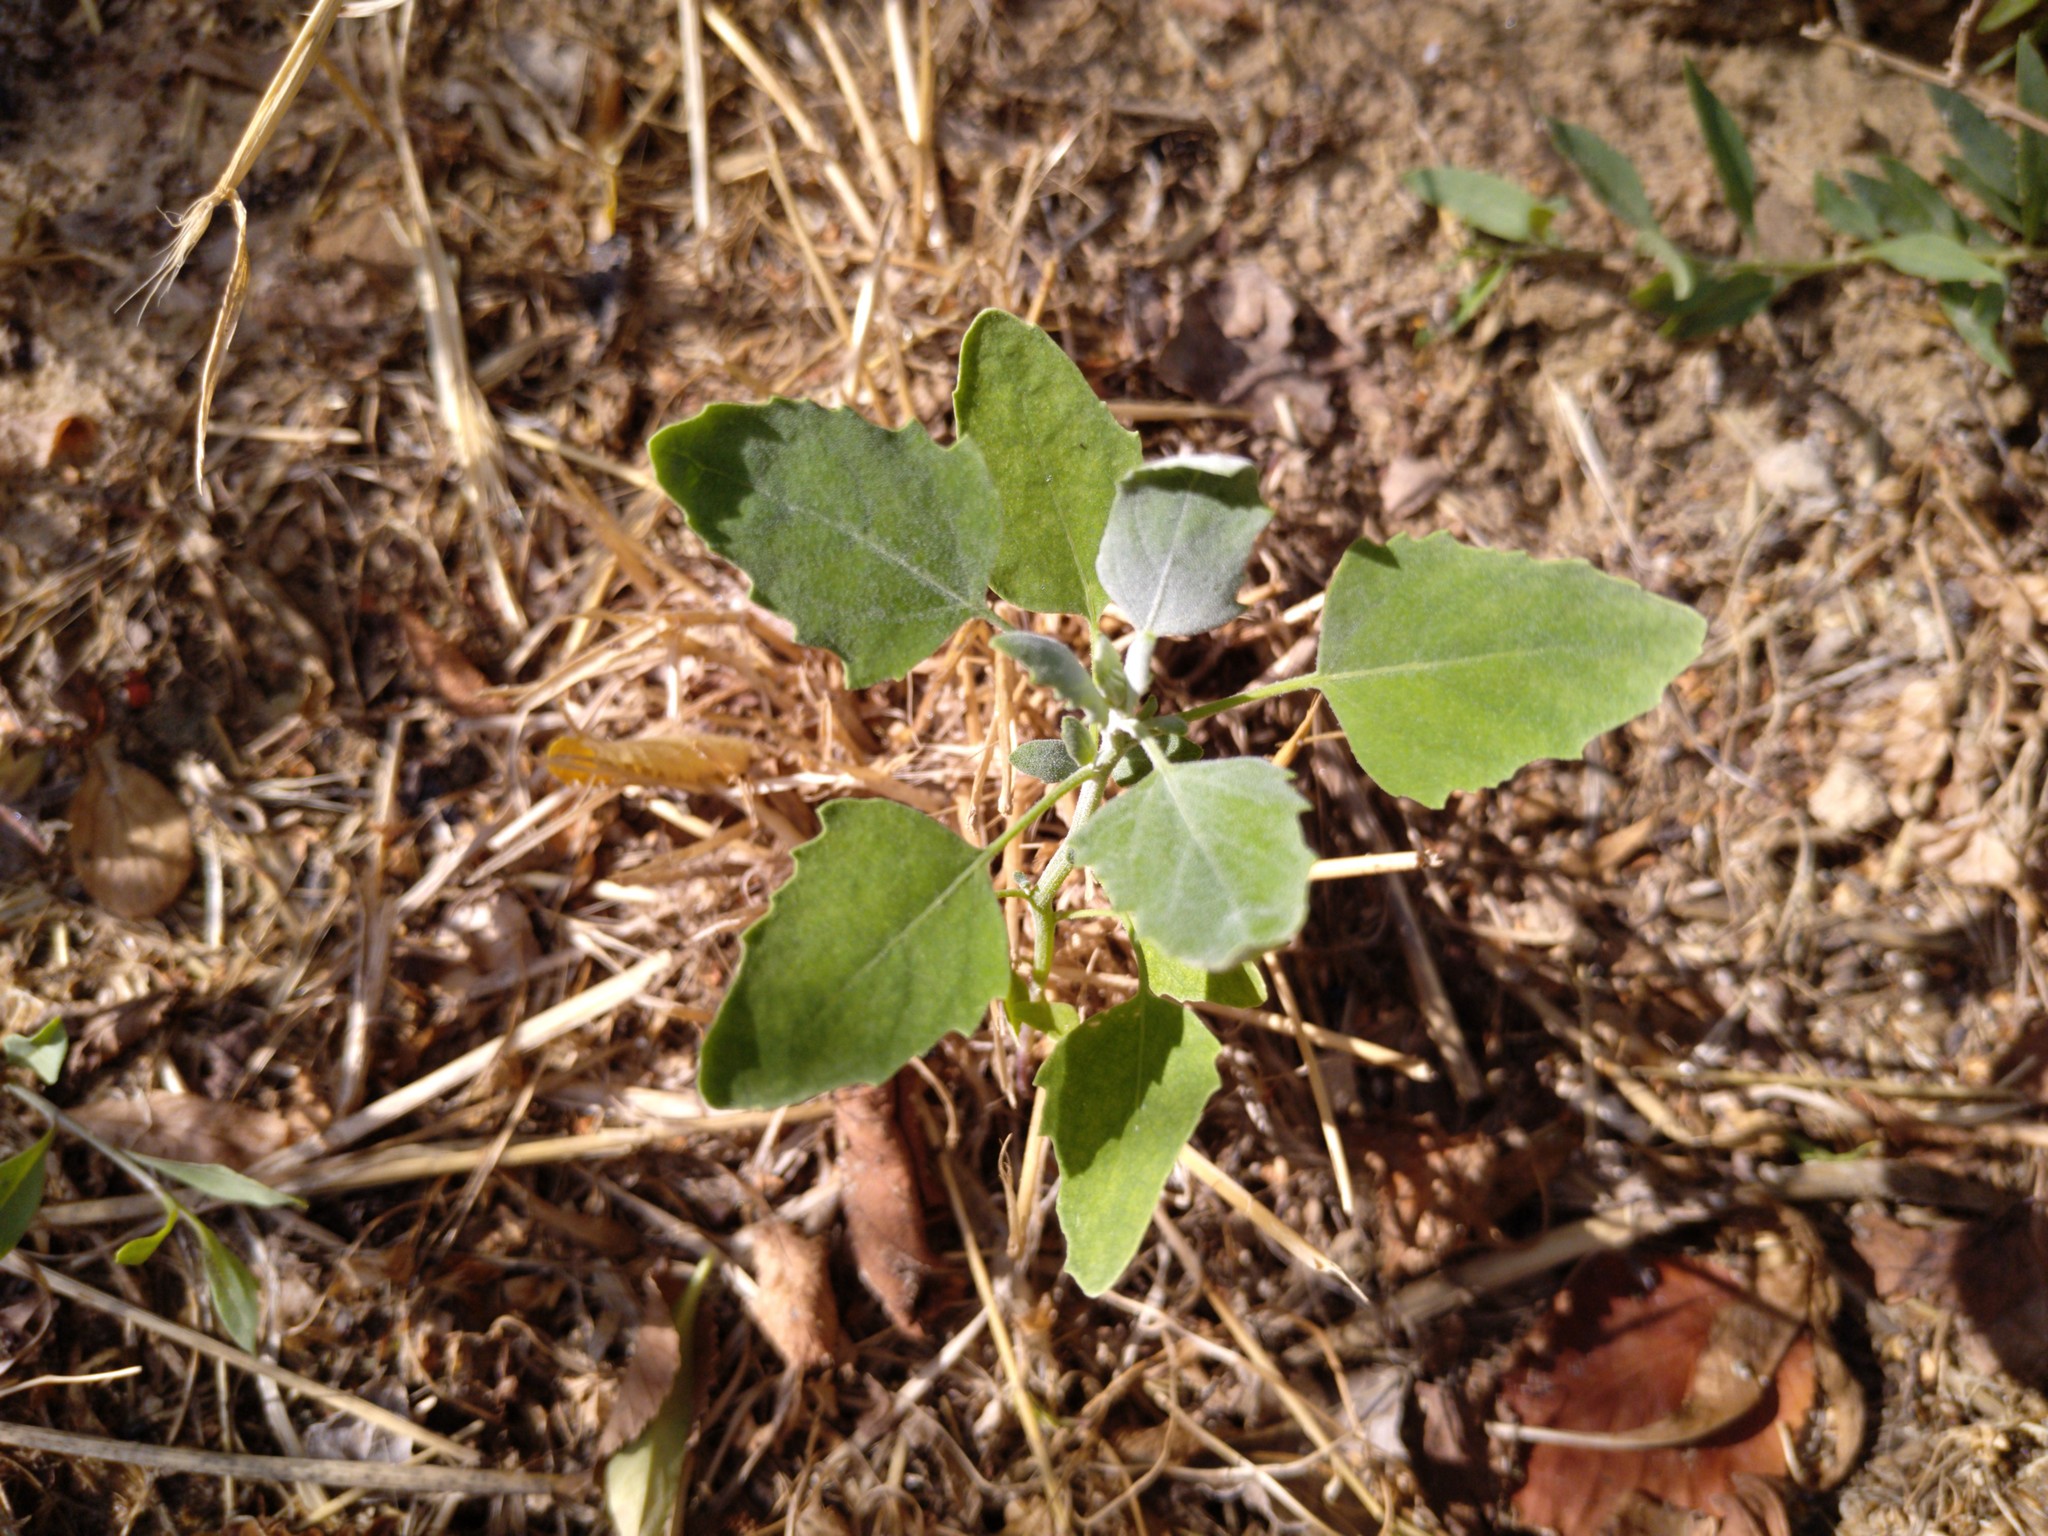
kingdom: Plantae
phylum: Tracheophyta
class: Magnoliopsida
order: Caryophyllales
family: Amaranthaceae
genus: Chenopodium
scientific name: Chenopodium album
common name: Fat-hen
